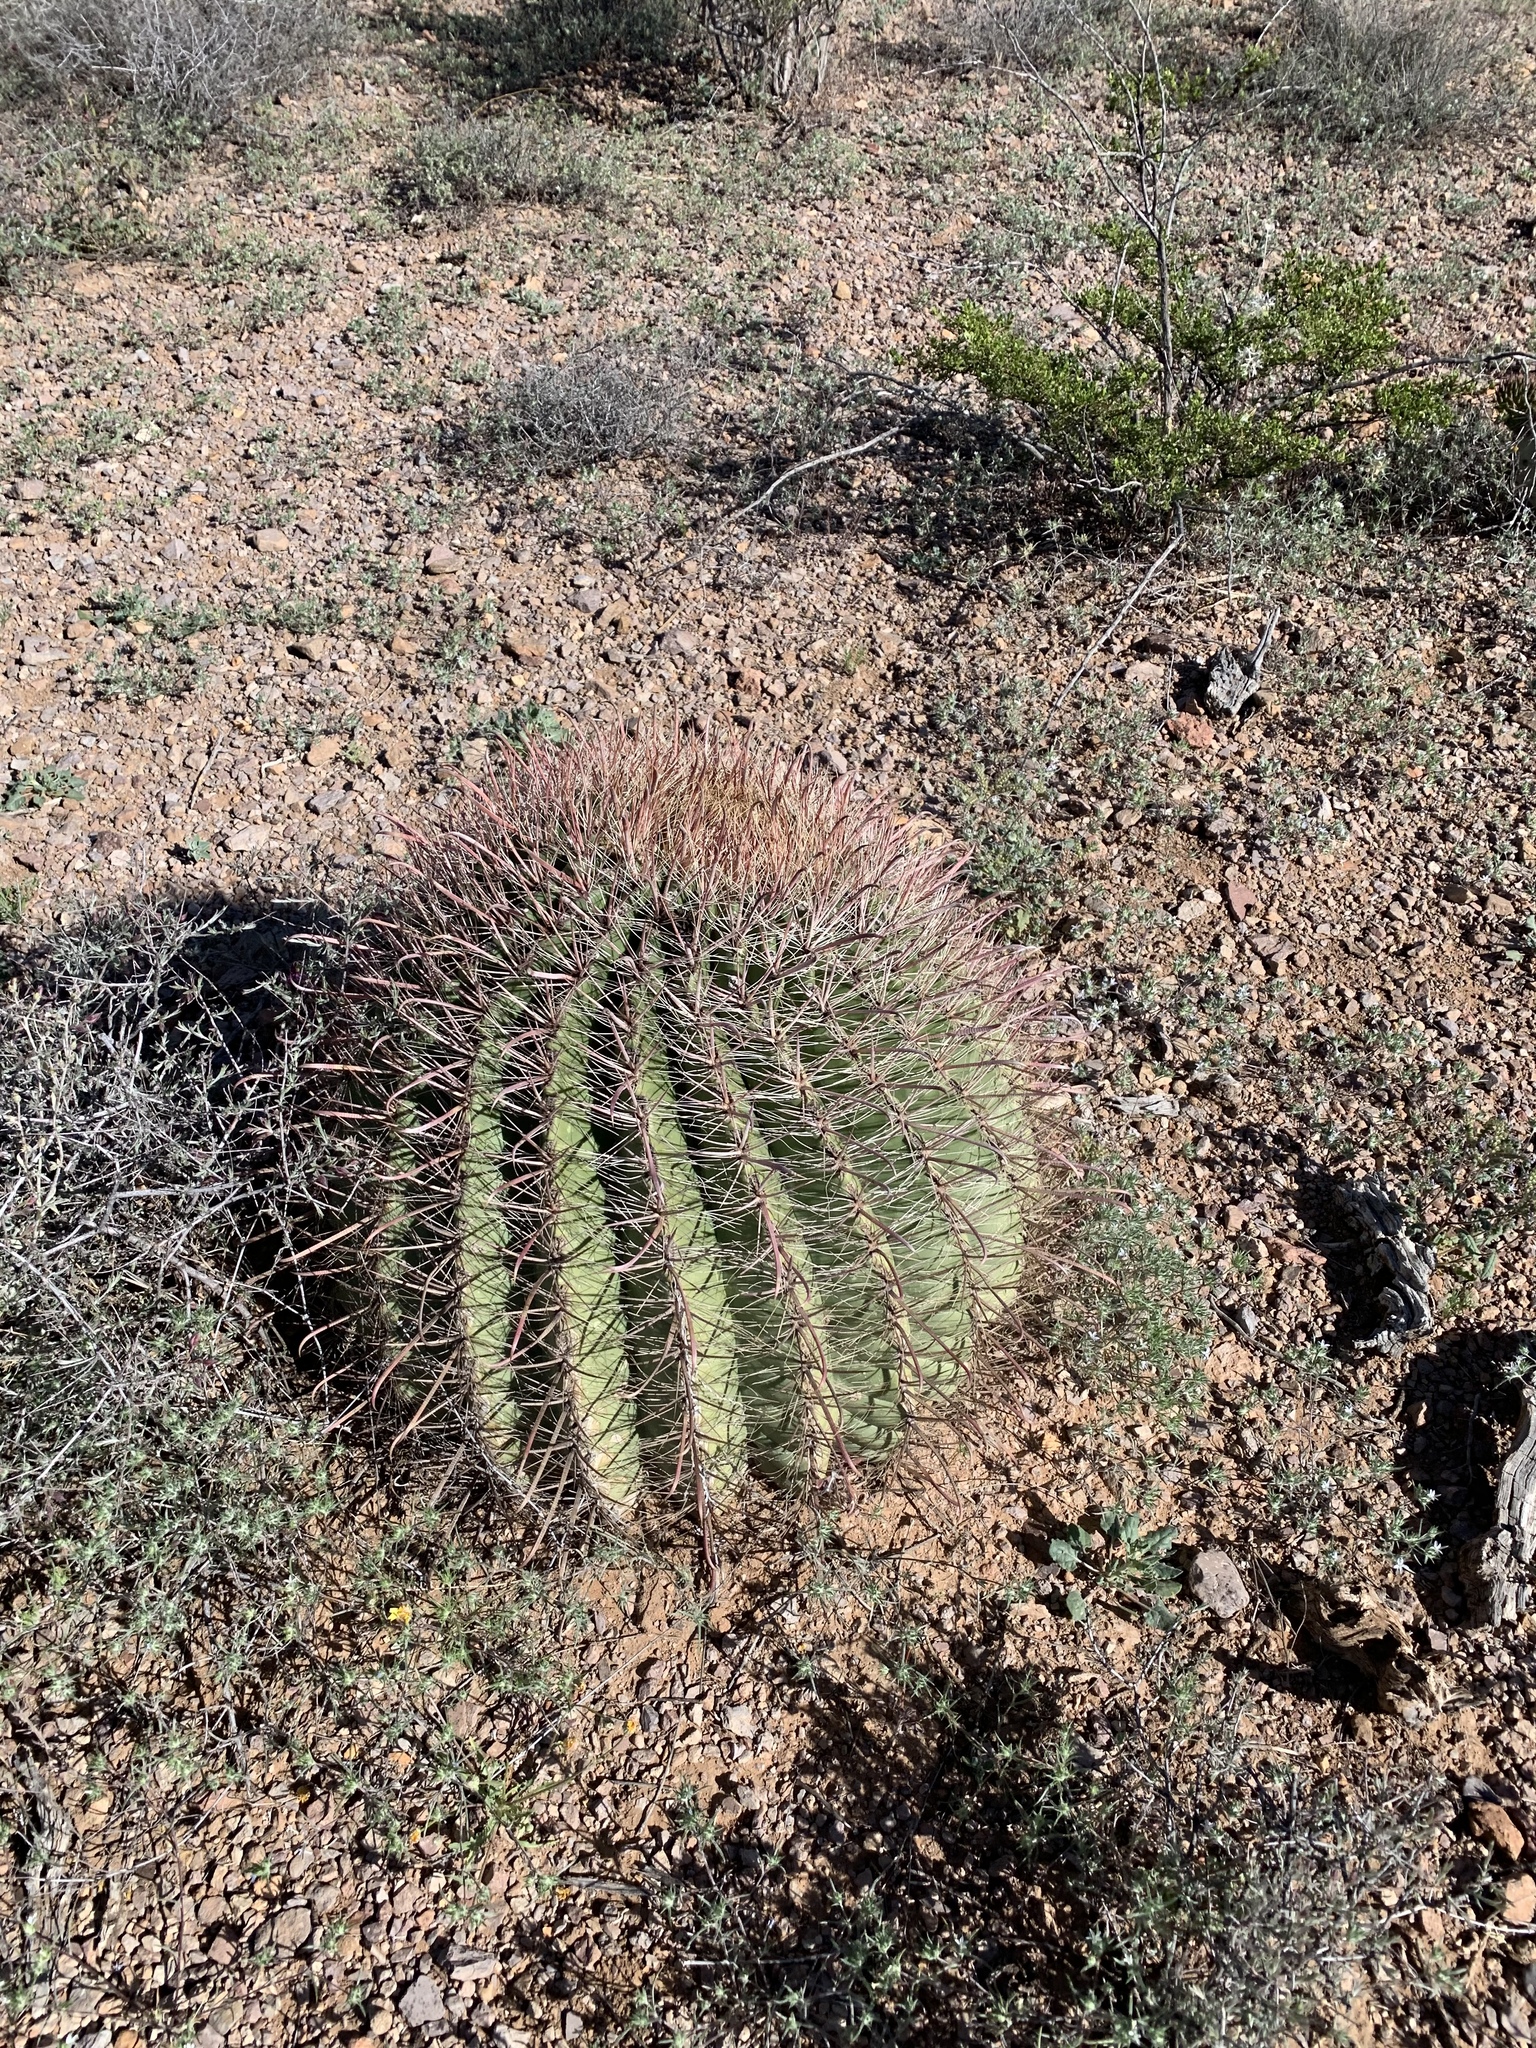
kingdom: Plantae
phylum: Tracheophyta
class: Magnoliopsida
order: Caryophyllales
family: Cactaceae
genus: Ferocactus
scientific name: Ferocactus wislizeni
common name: Candy barrel cactus
